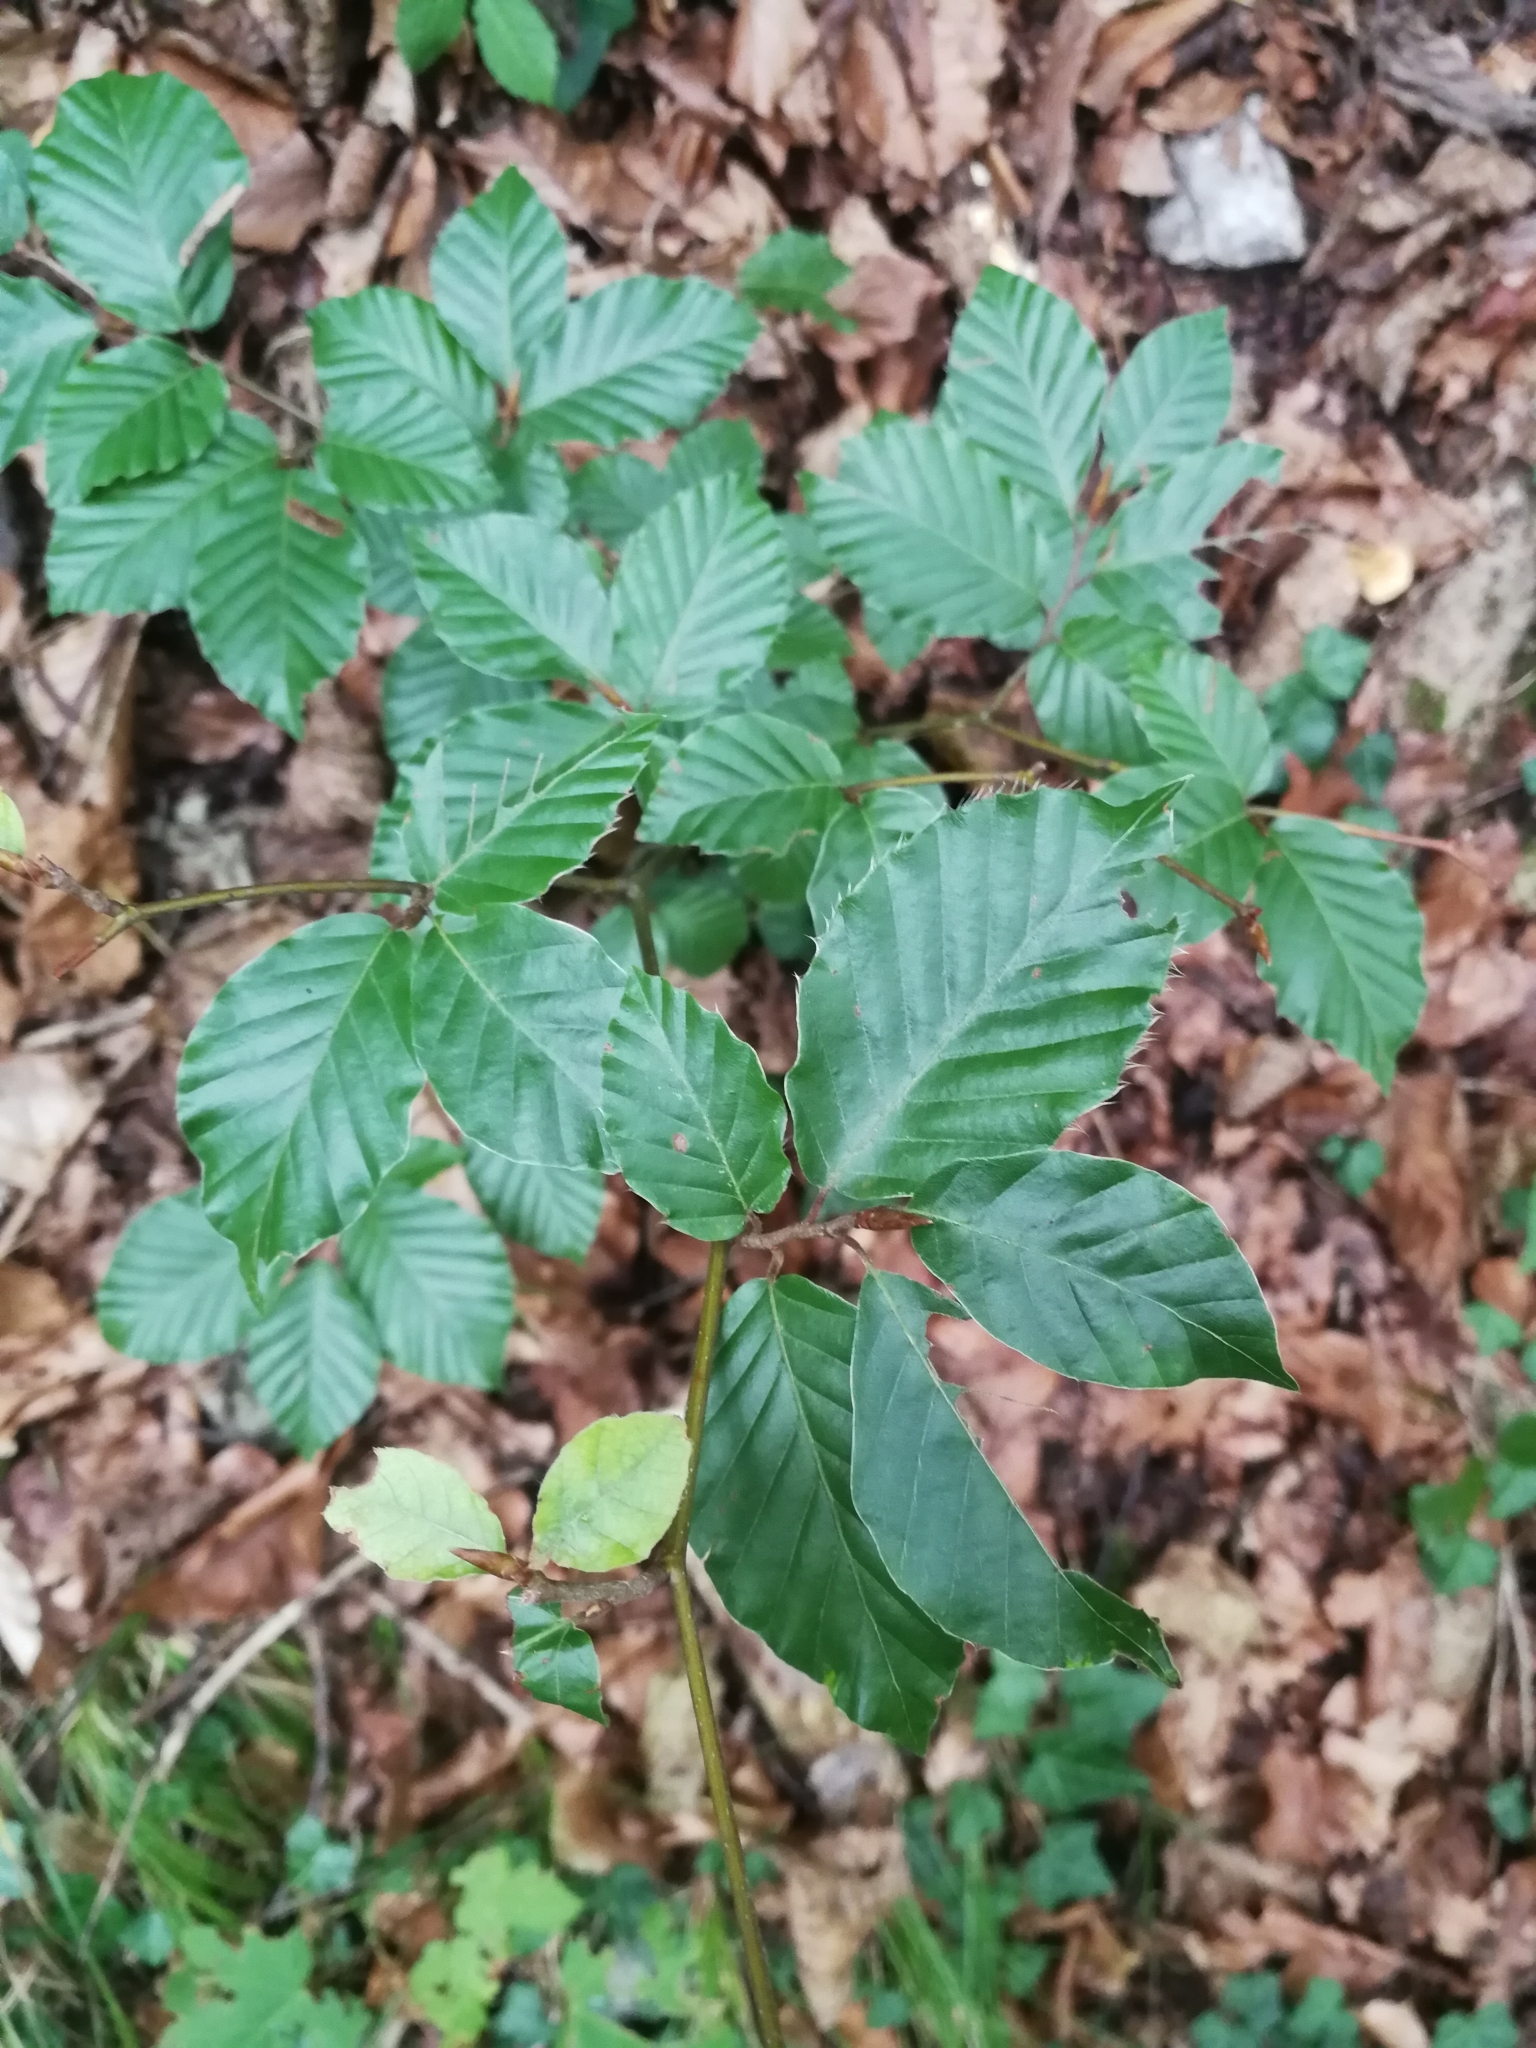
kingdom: Plantae
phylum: Tracheophyta
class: Magnoliopsida
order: Fagales
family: Fagaceae
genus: Fagus
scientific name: Fagus sylvatica
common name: Beech
